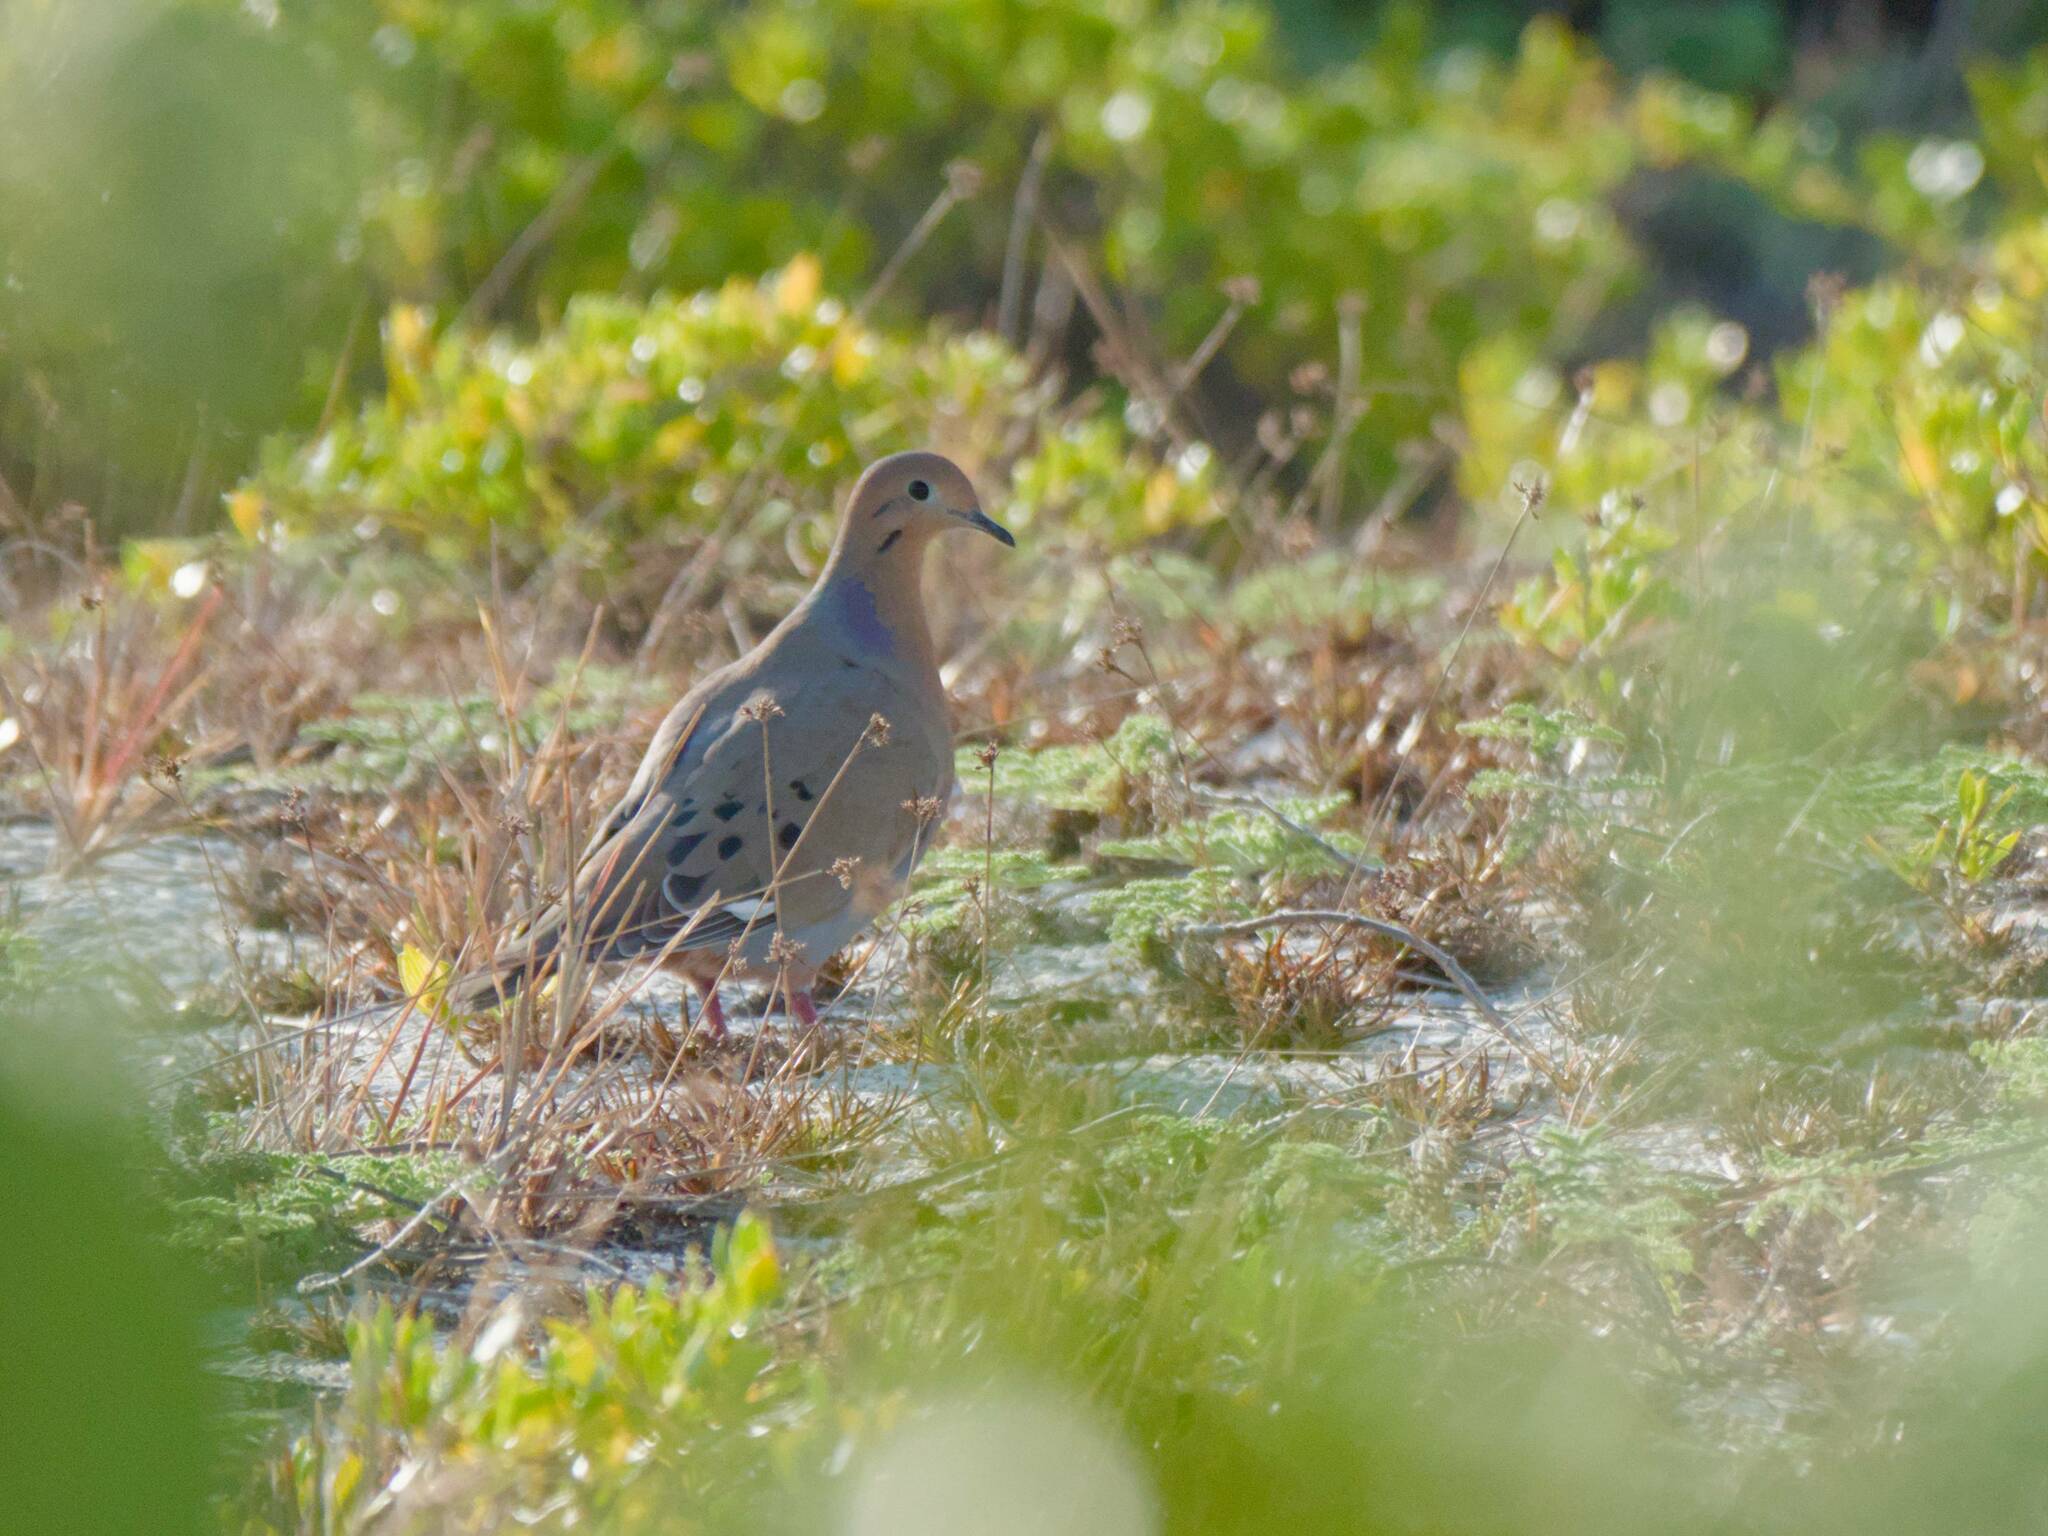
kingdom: Animalia
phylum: Chordata
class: Aves
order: Columbiformes
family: Columbidae
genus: Zenaida
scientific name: Zenaida aurita
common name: Zenaida dove
